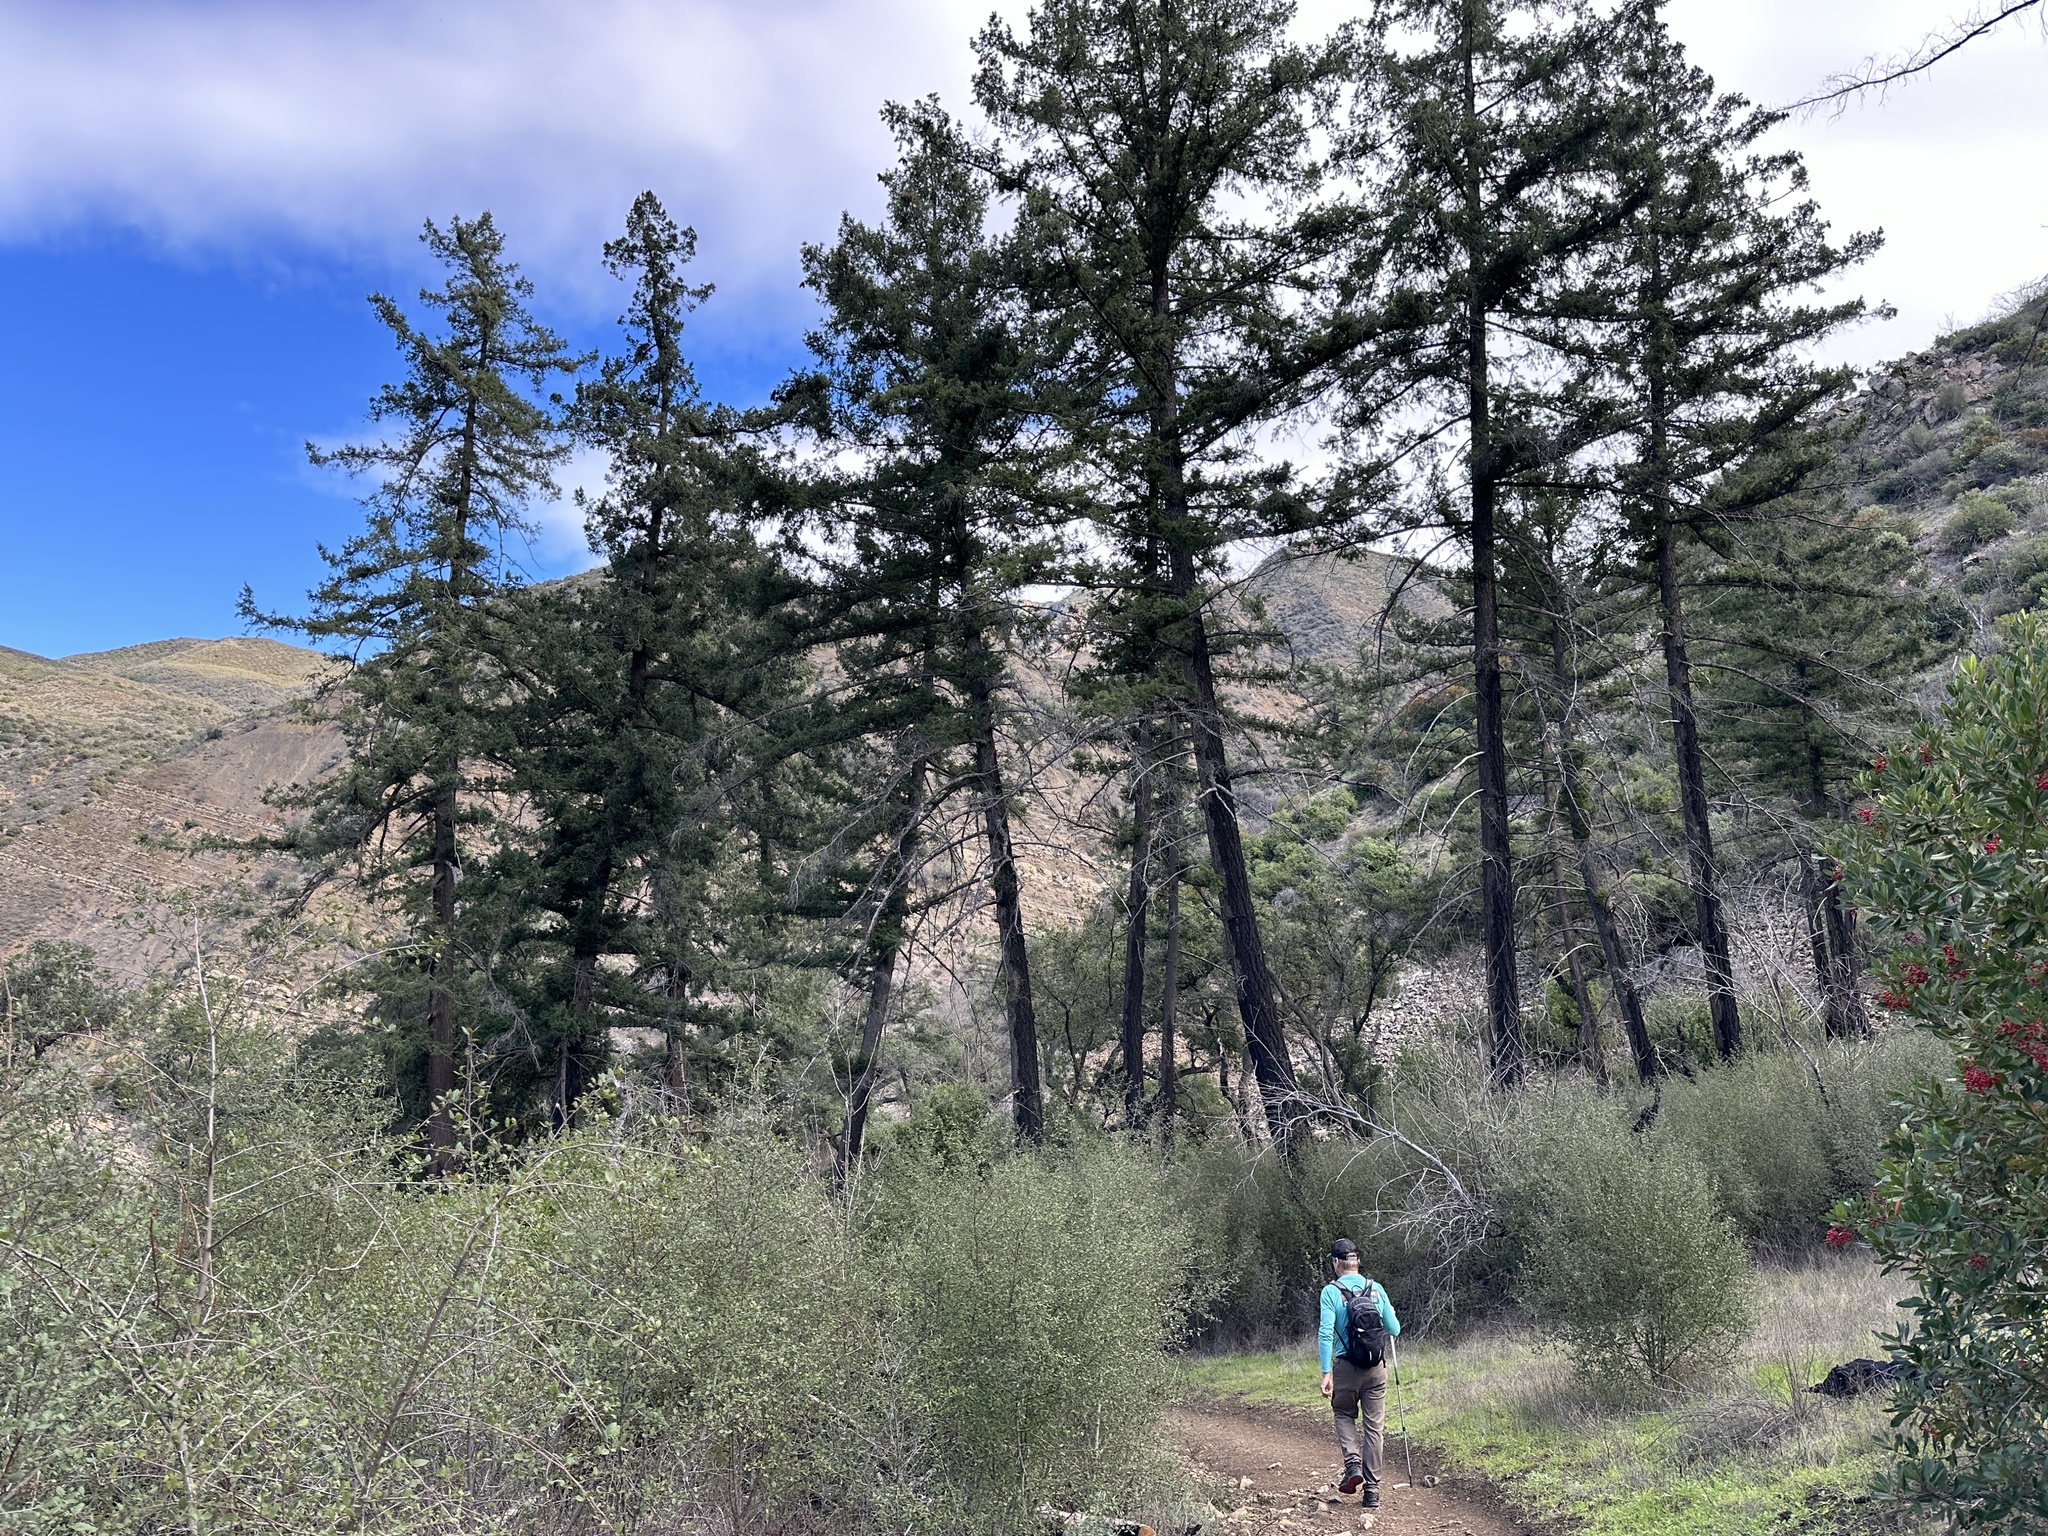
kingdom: Plantae
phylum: Tracheophyta
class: Pinopsida
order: Pinales
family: Pinaceae
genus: Pseudotsuga
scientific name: Pseudotsuga macrocarpa
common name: Big-cone douglas-fir
